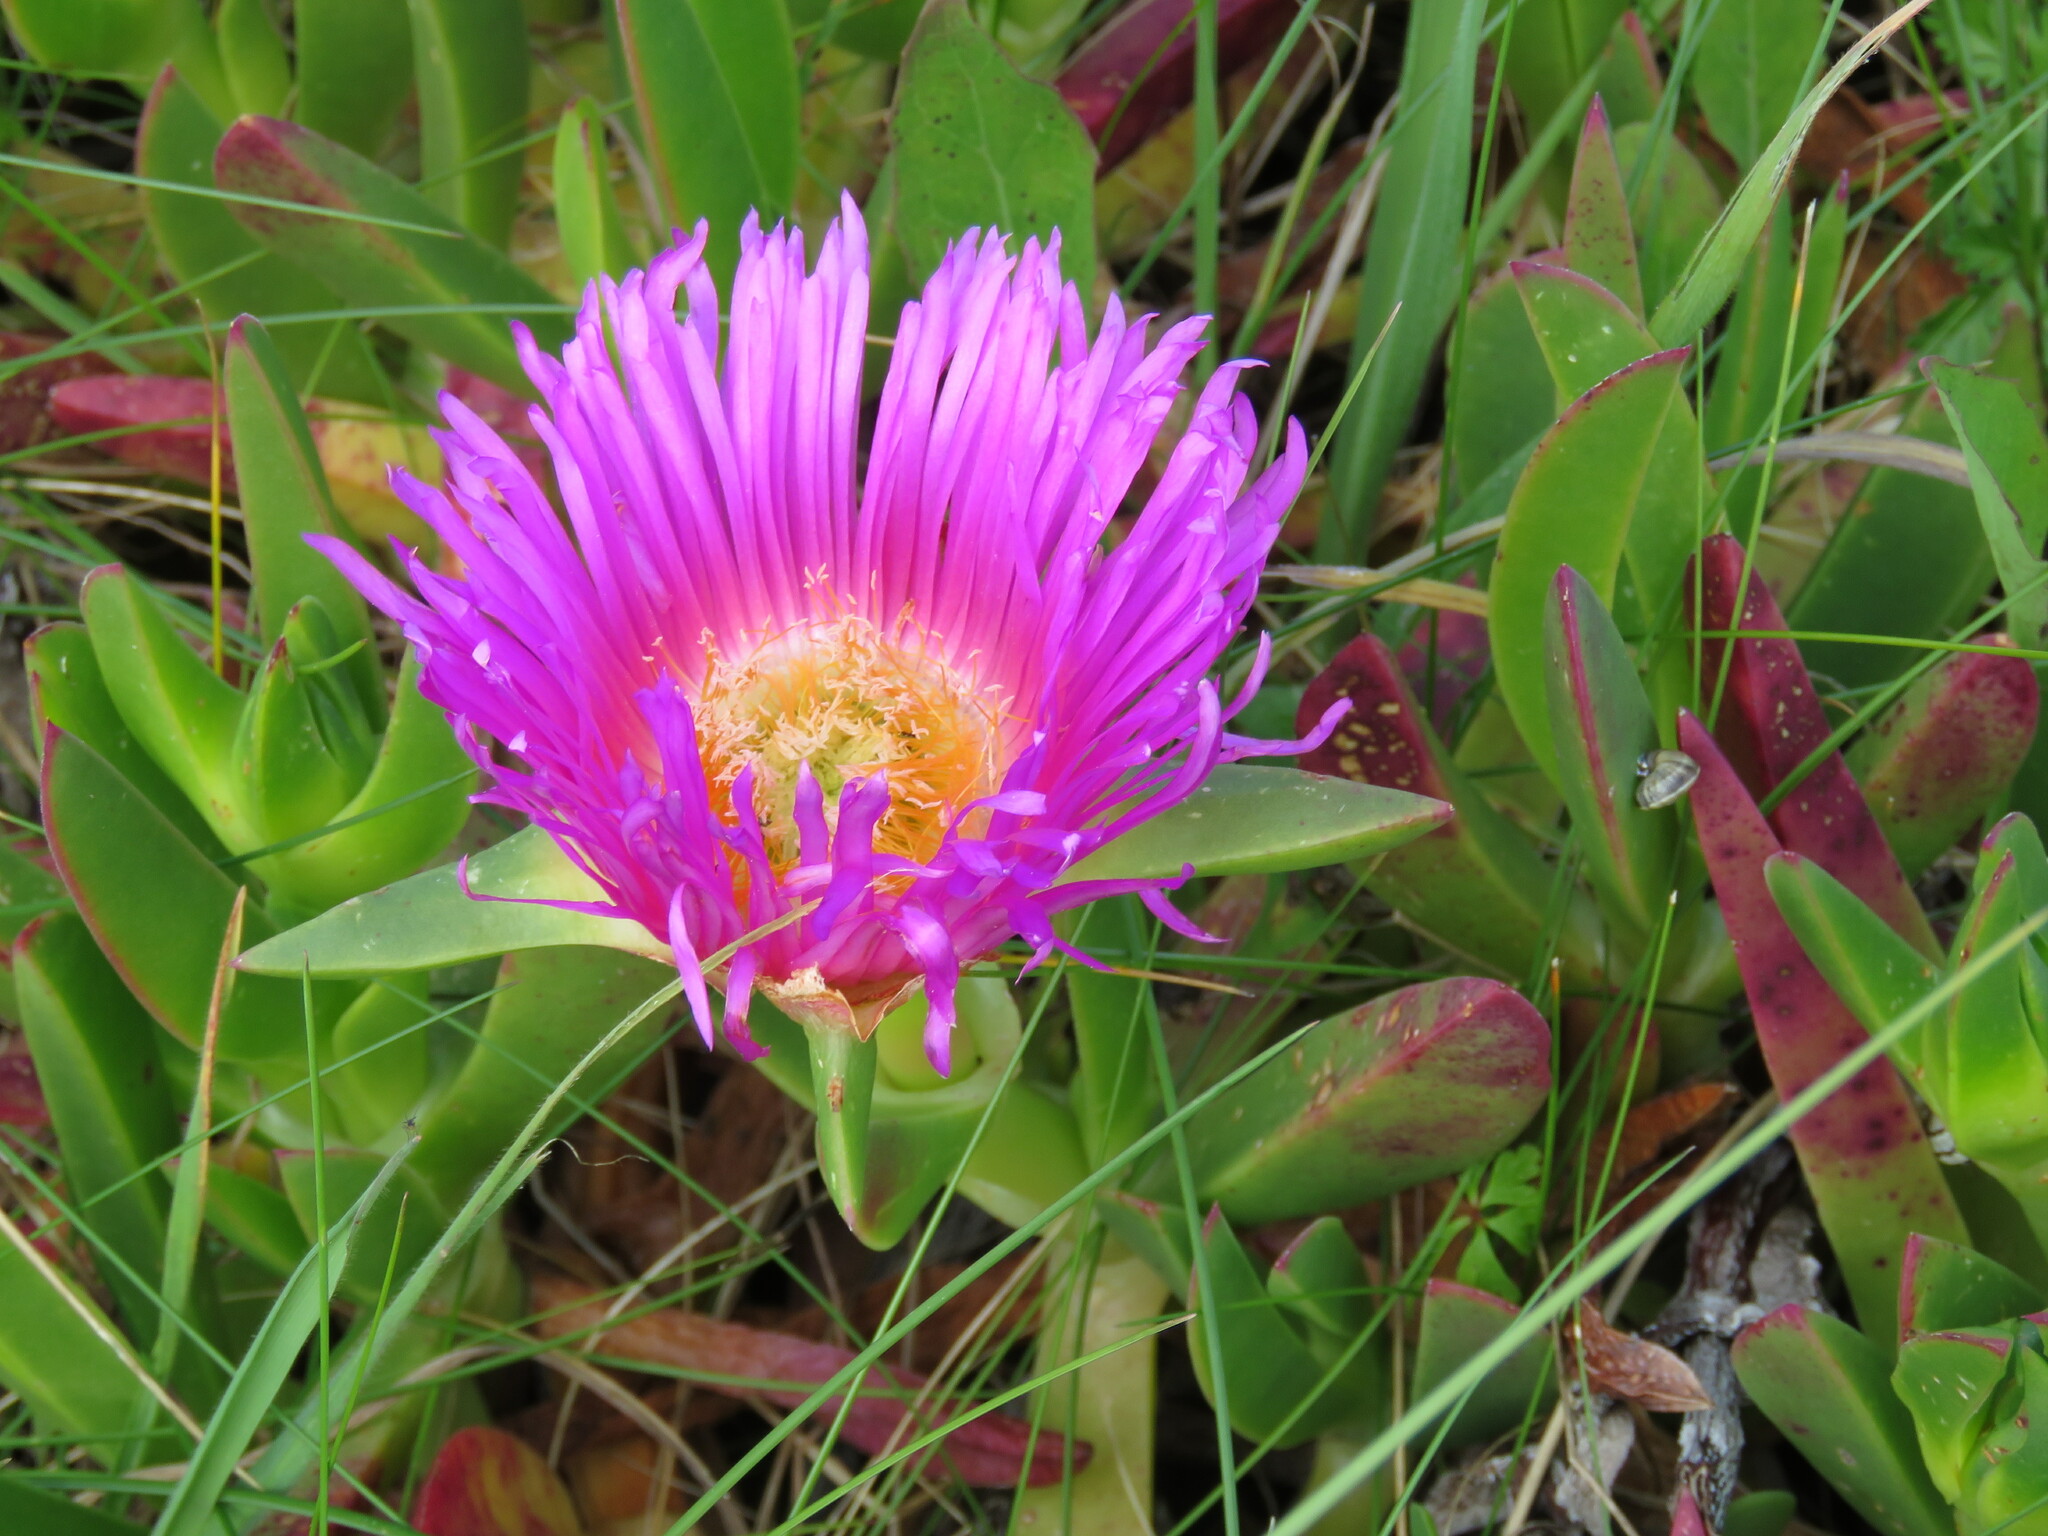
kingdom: Plantae
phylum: Tracheophyta
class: Magnoliopsida
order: Caryophyllales
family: Aizoaceae
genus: Carpobrotus
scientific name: Carpobrotus acinaciformis
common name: Sally-my-handsome
